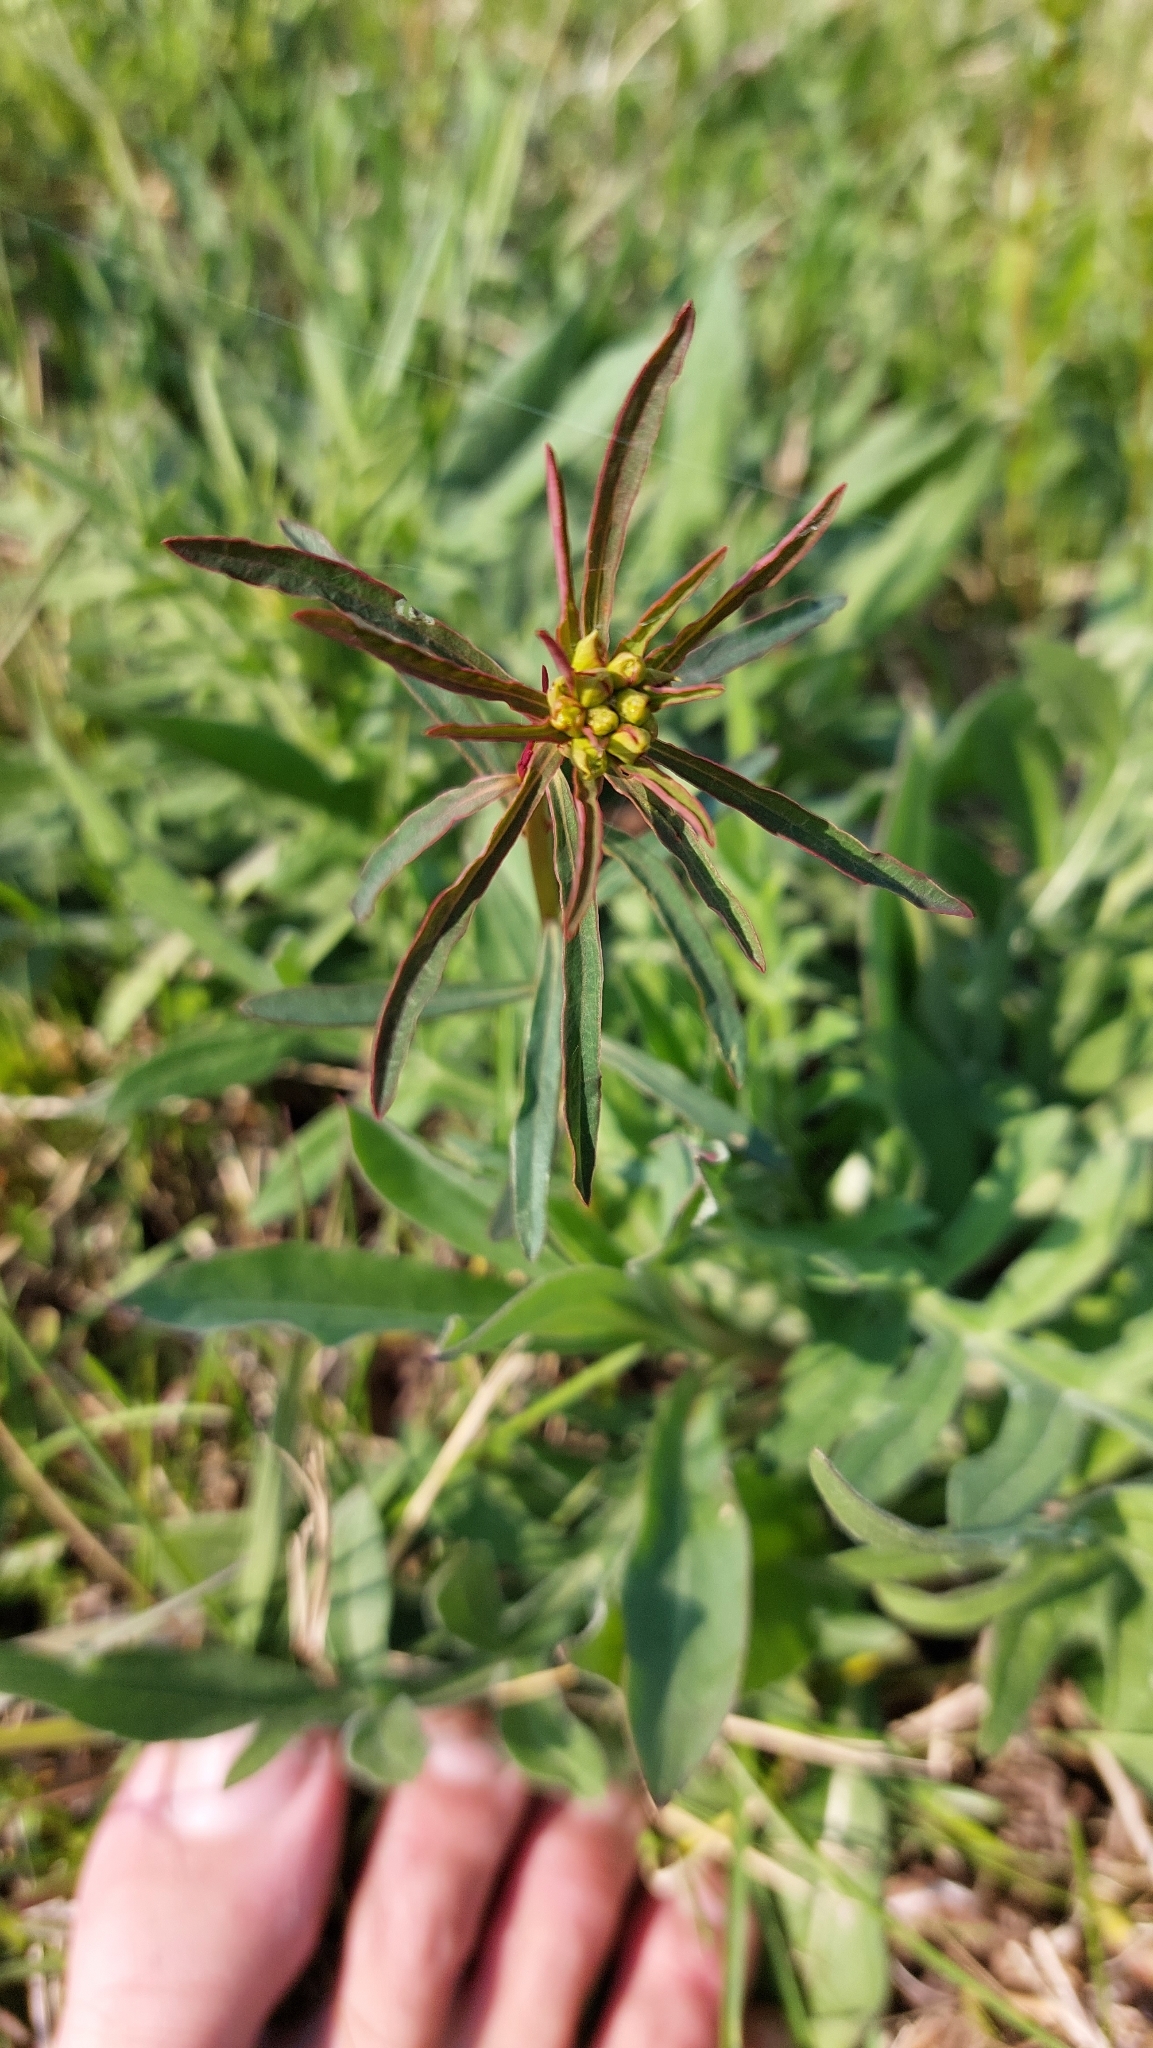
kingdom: Plantae
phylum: Tracheophyta
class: Magnoliopsida
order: Malpighiales
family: Euphorbiaceae
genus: Euphorbia
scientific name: Euphorbia esula
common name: Leafy spurge
